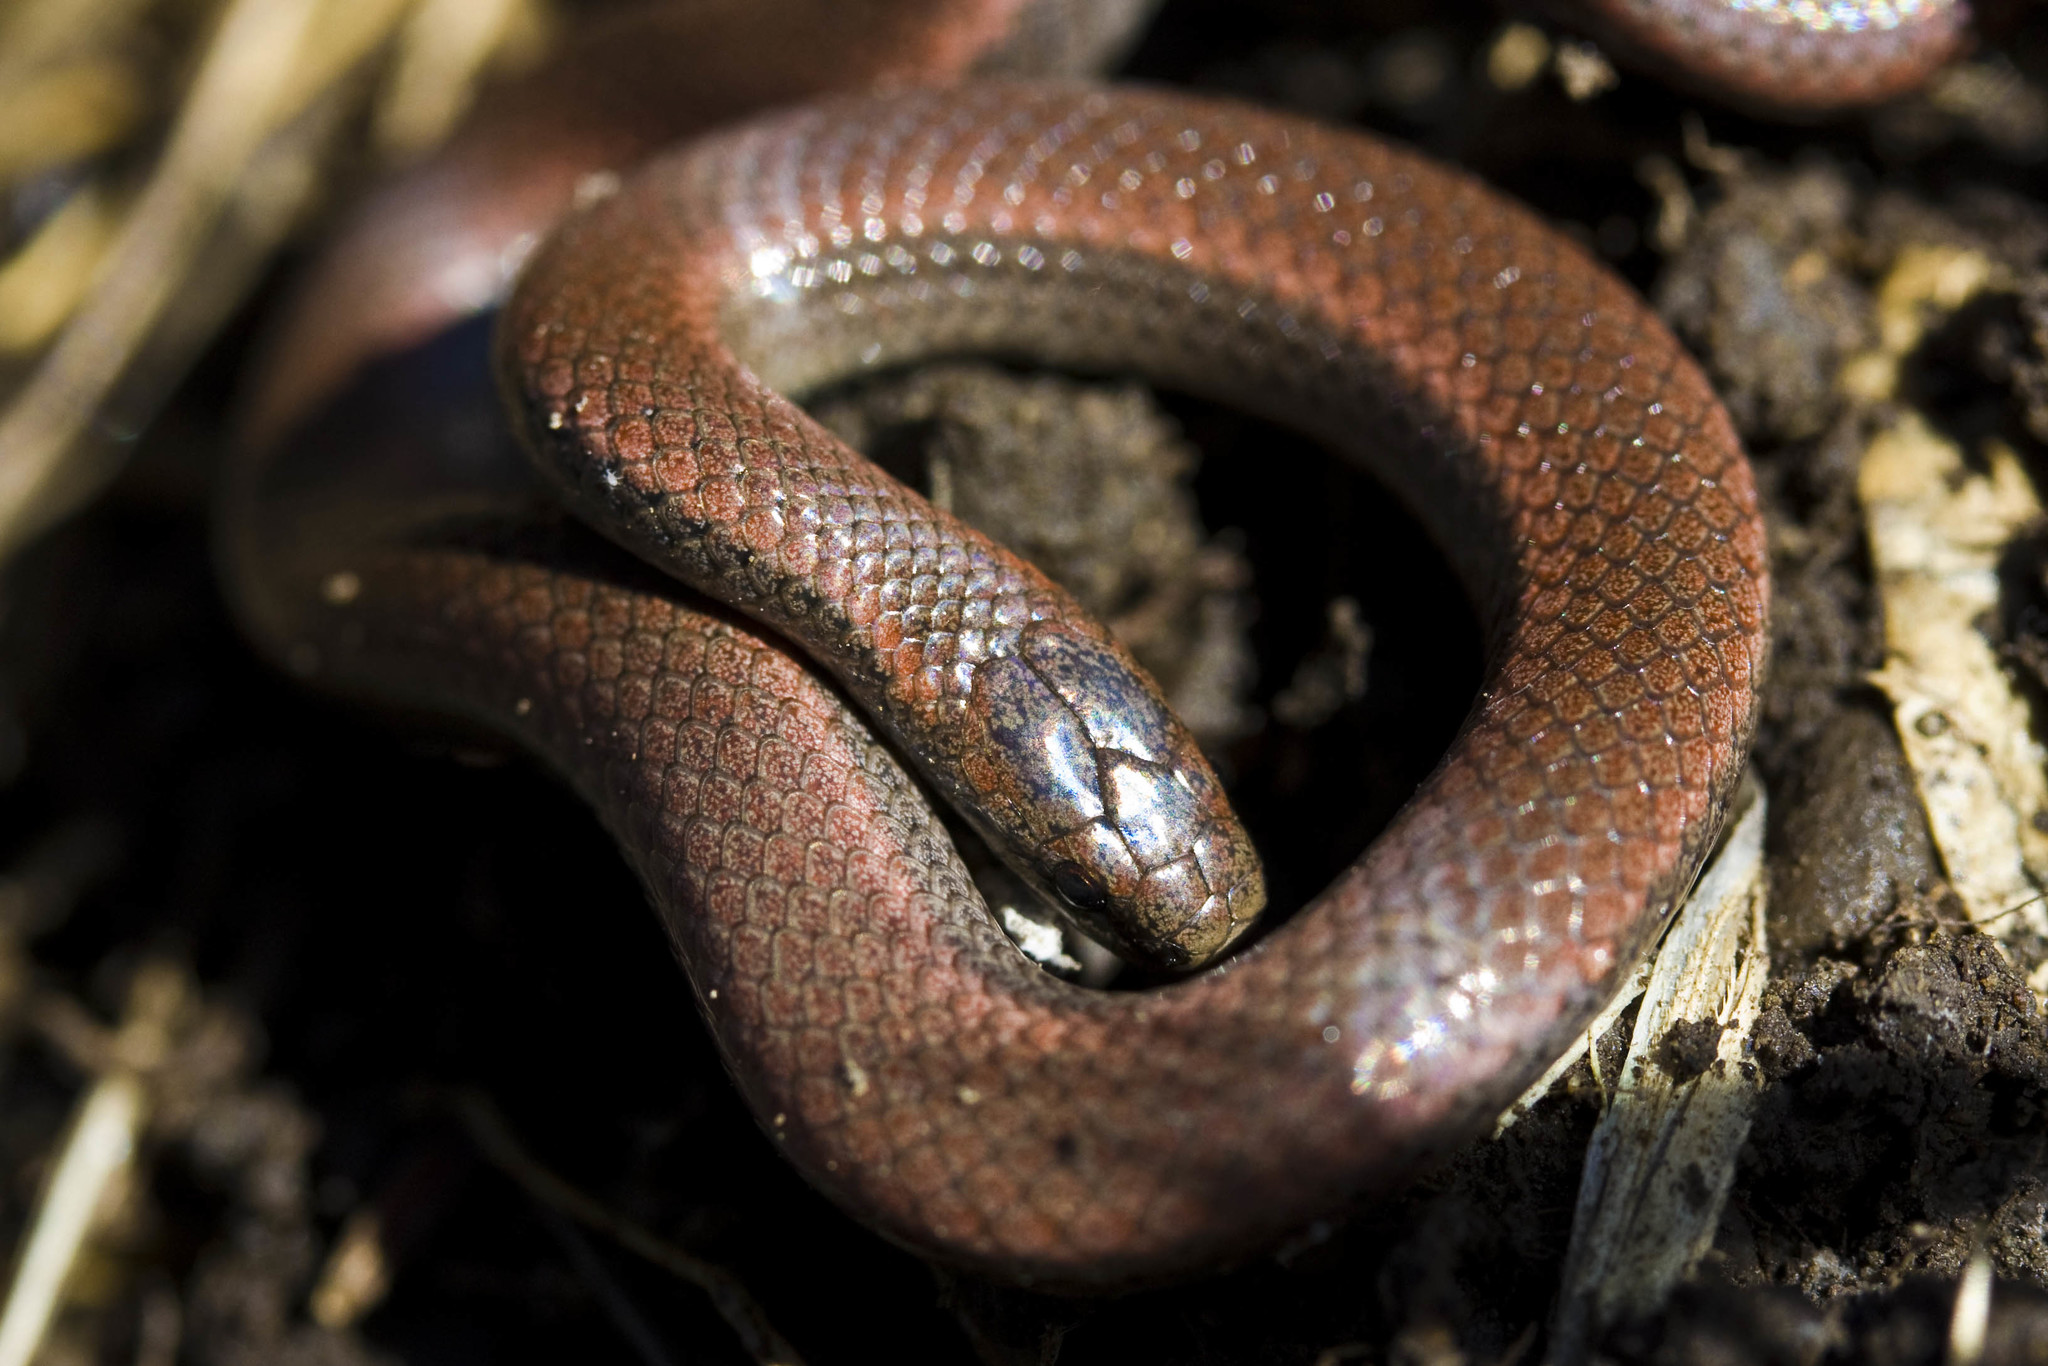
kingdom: Animalia
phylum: Chordata
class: Squamata
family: Colubridae
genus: Contia
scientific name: Contia tenuis
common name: Sharptail snake
